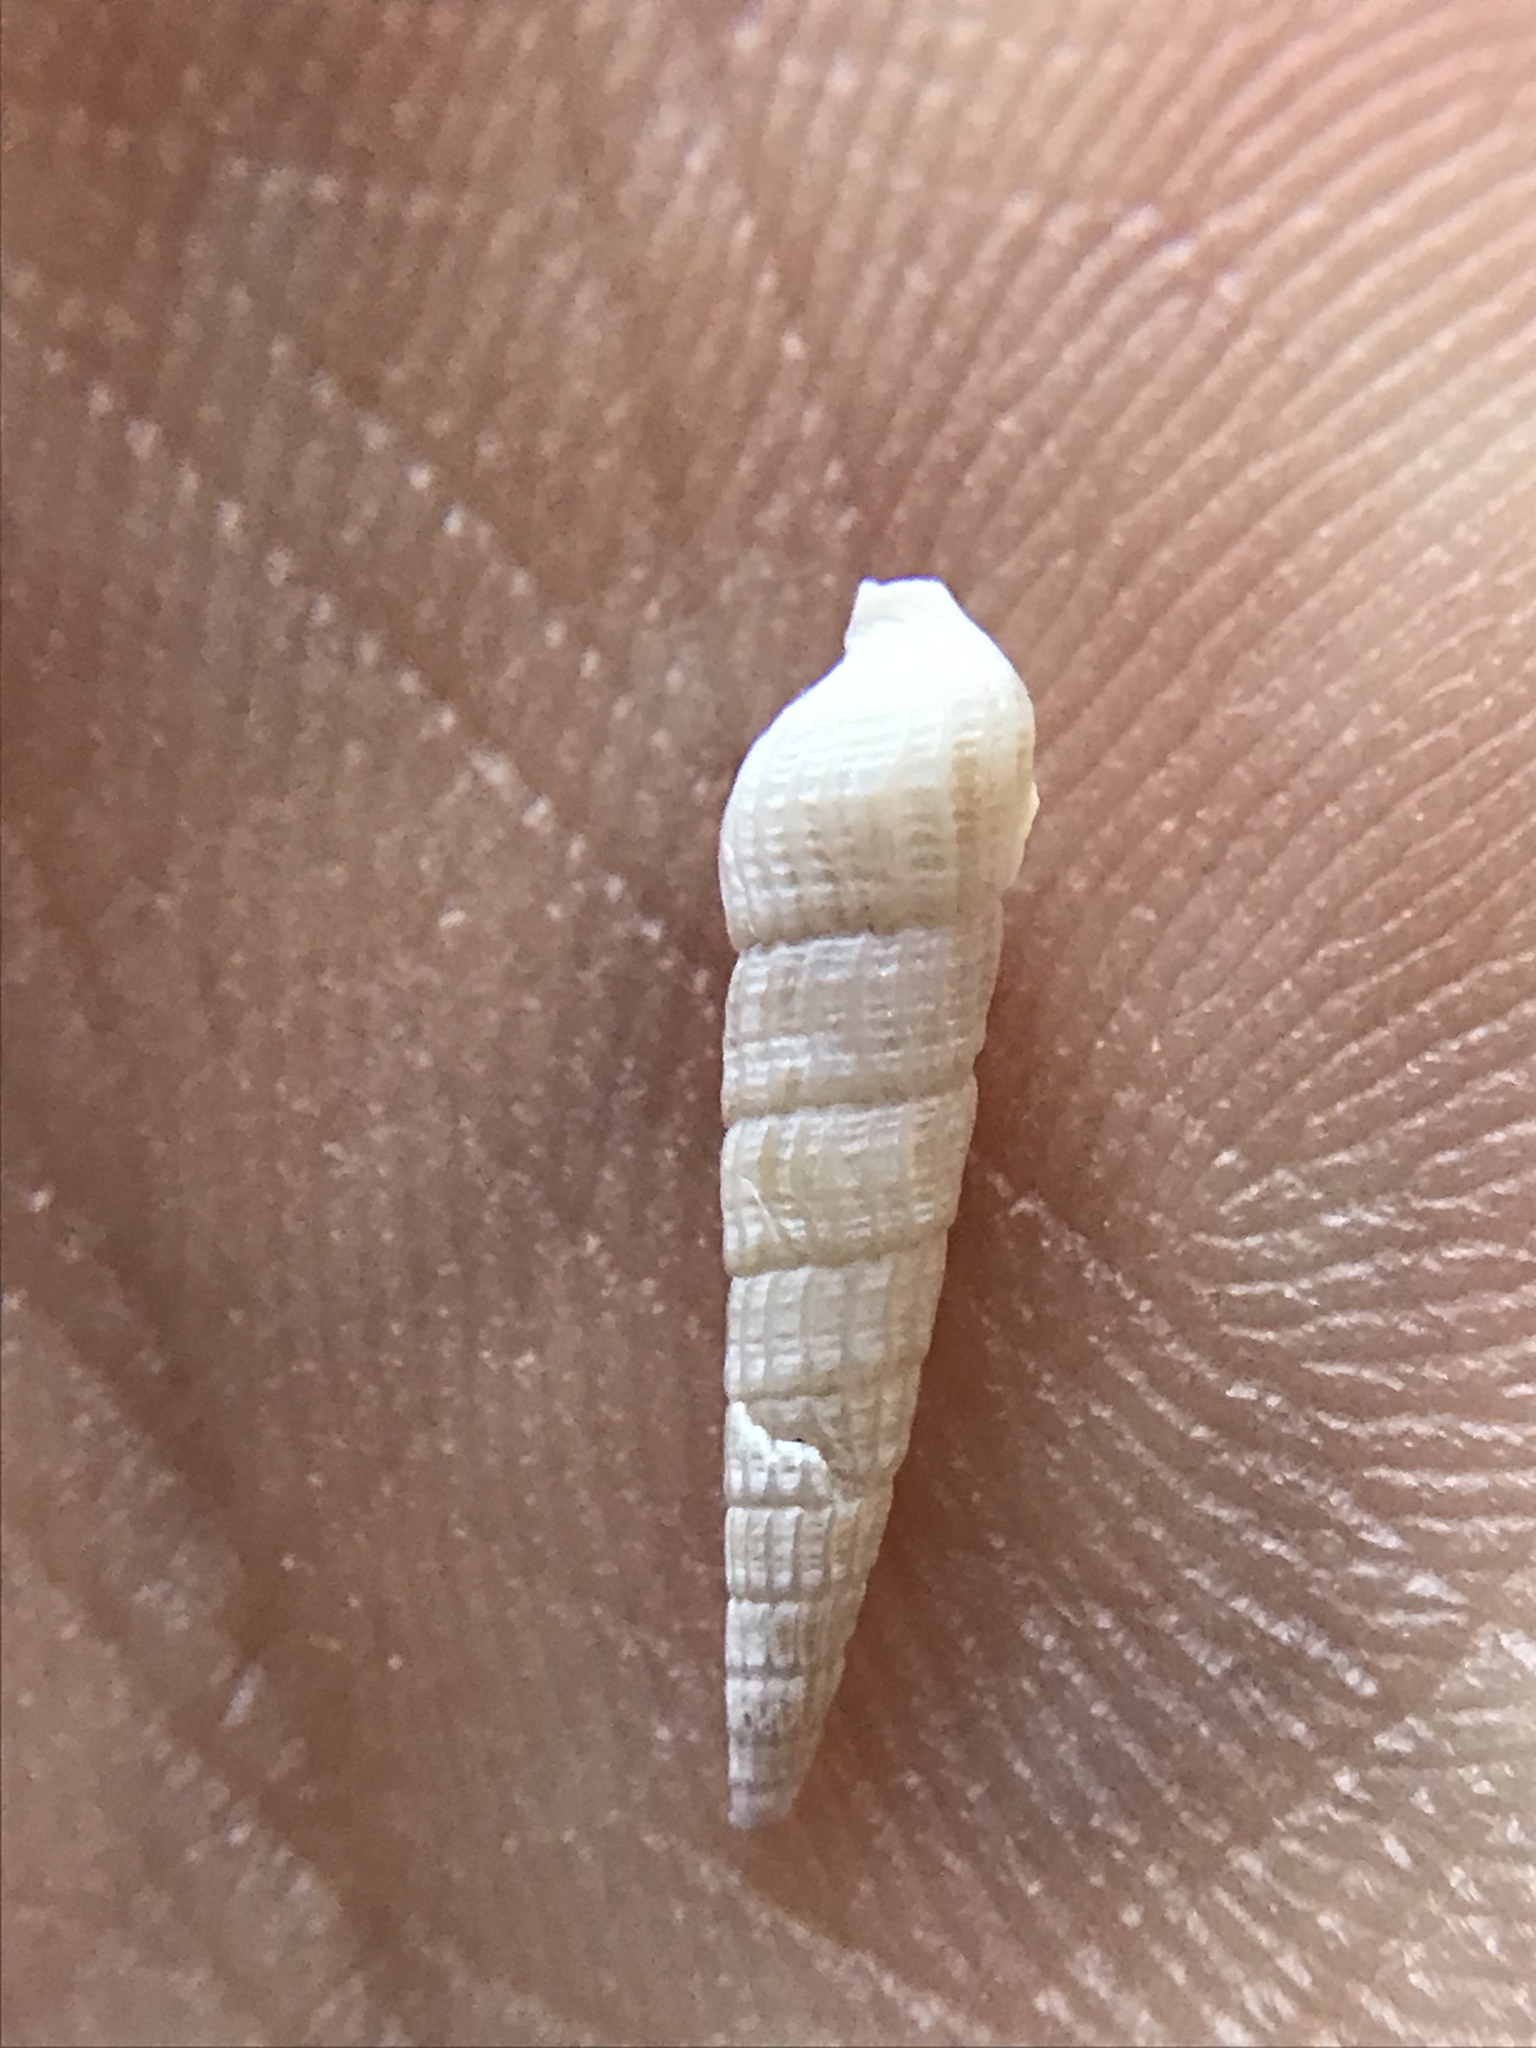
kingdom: Animalia
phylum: Mollusca
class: Gastropoda
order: Neogastropoda
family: Terebridae
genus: Neoterebra
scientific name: Neoterebra protexta
